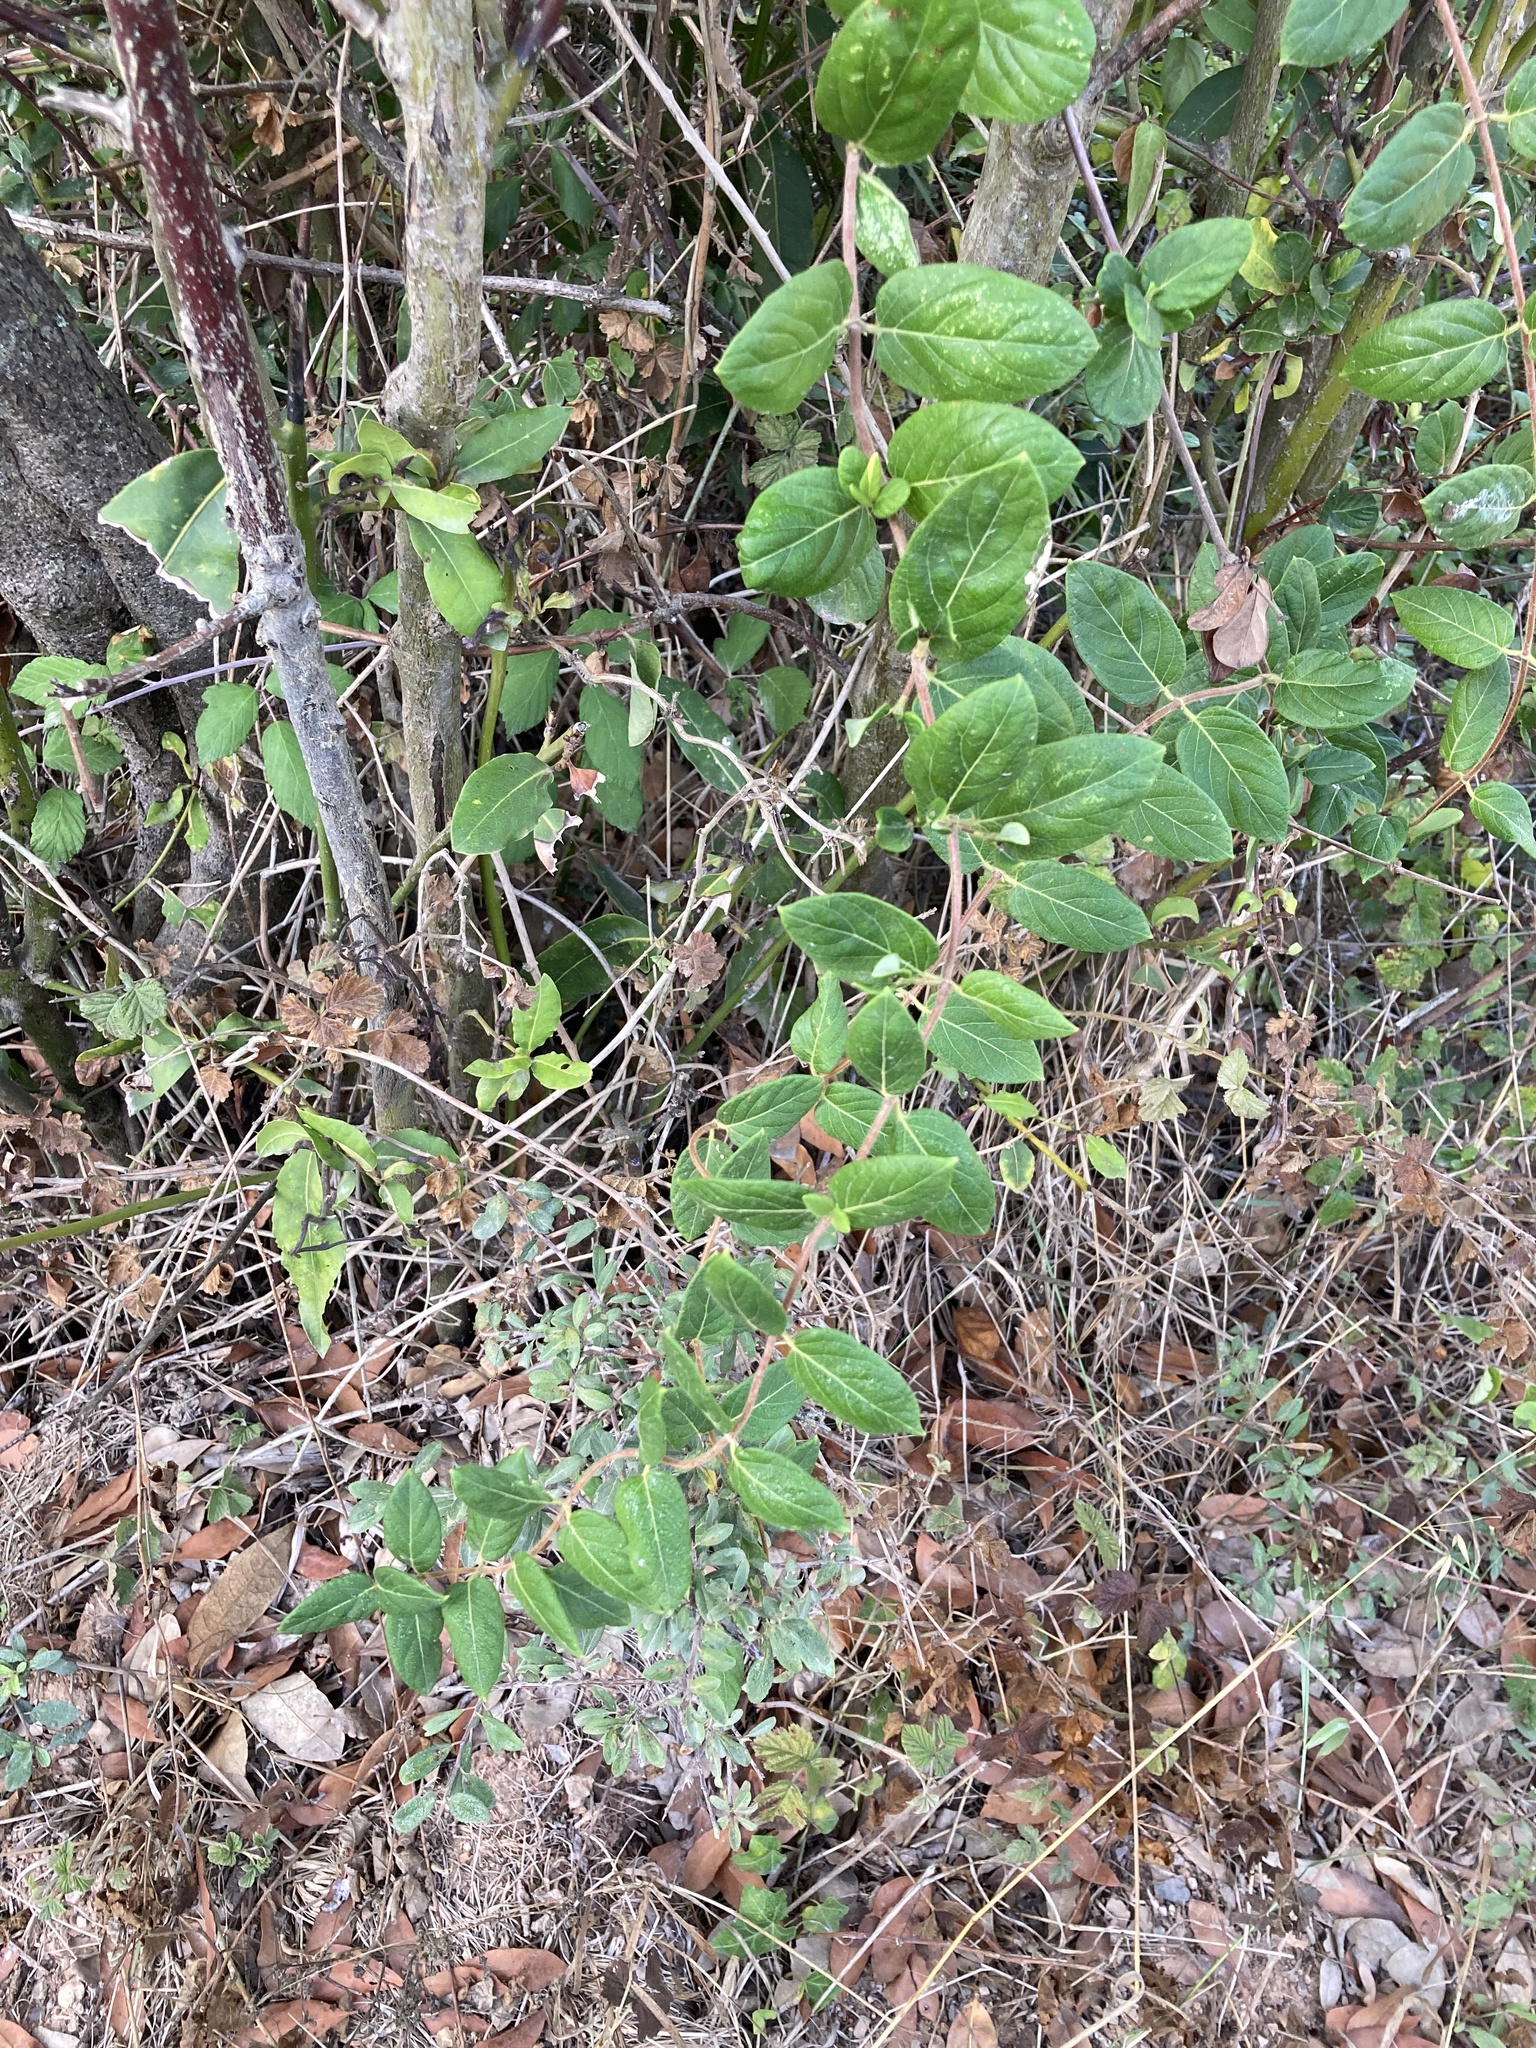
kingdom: Plantae
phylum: Tracheophyta
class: Magnoliopsida
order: Dipsacales
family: Caprifoliaceae
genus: Lonicera
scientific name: Lonicera japonica
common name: Japanese honeysuckle
